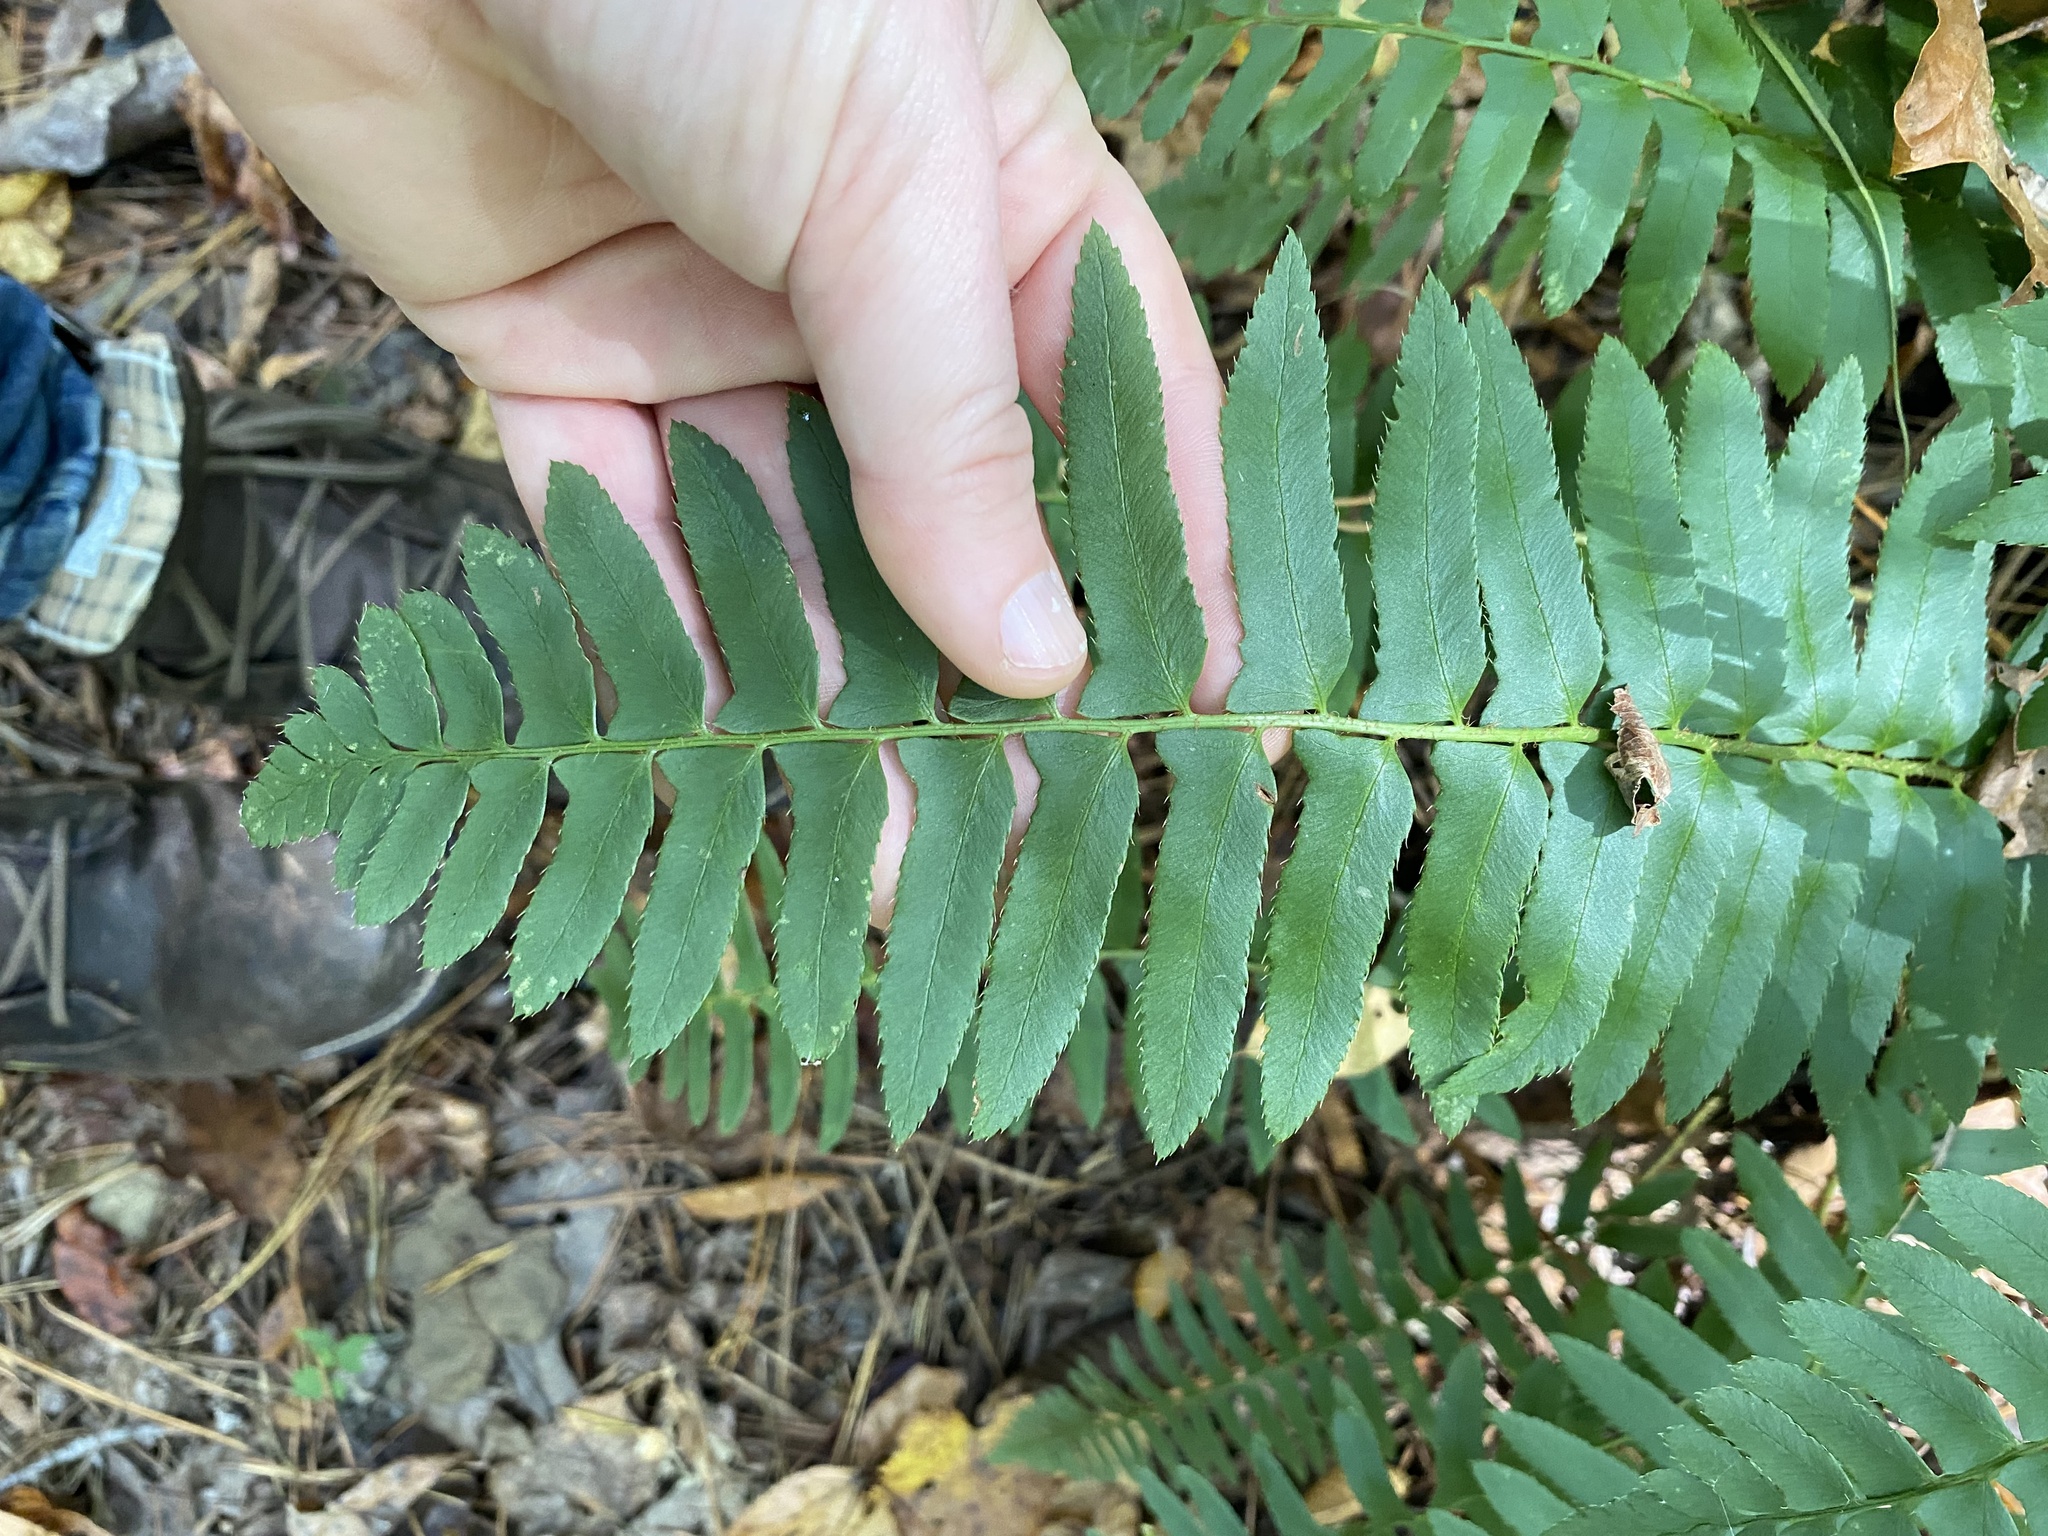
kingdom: Plantae
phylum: Tracheophyta
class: Polypodiopsida
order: Polypodiales
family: Dryopteridaceae
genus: Polystichum
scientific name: Polystichum acrostichoides
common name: Christmas fern
